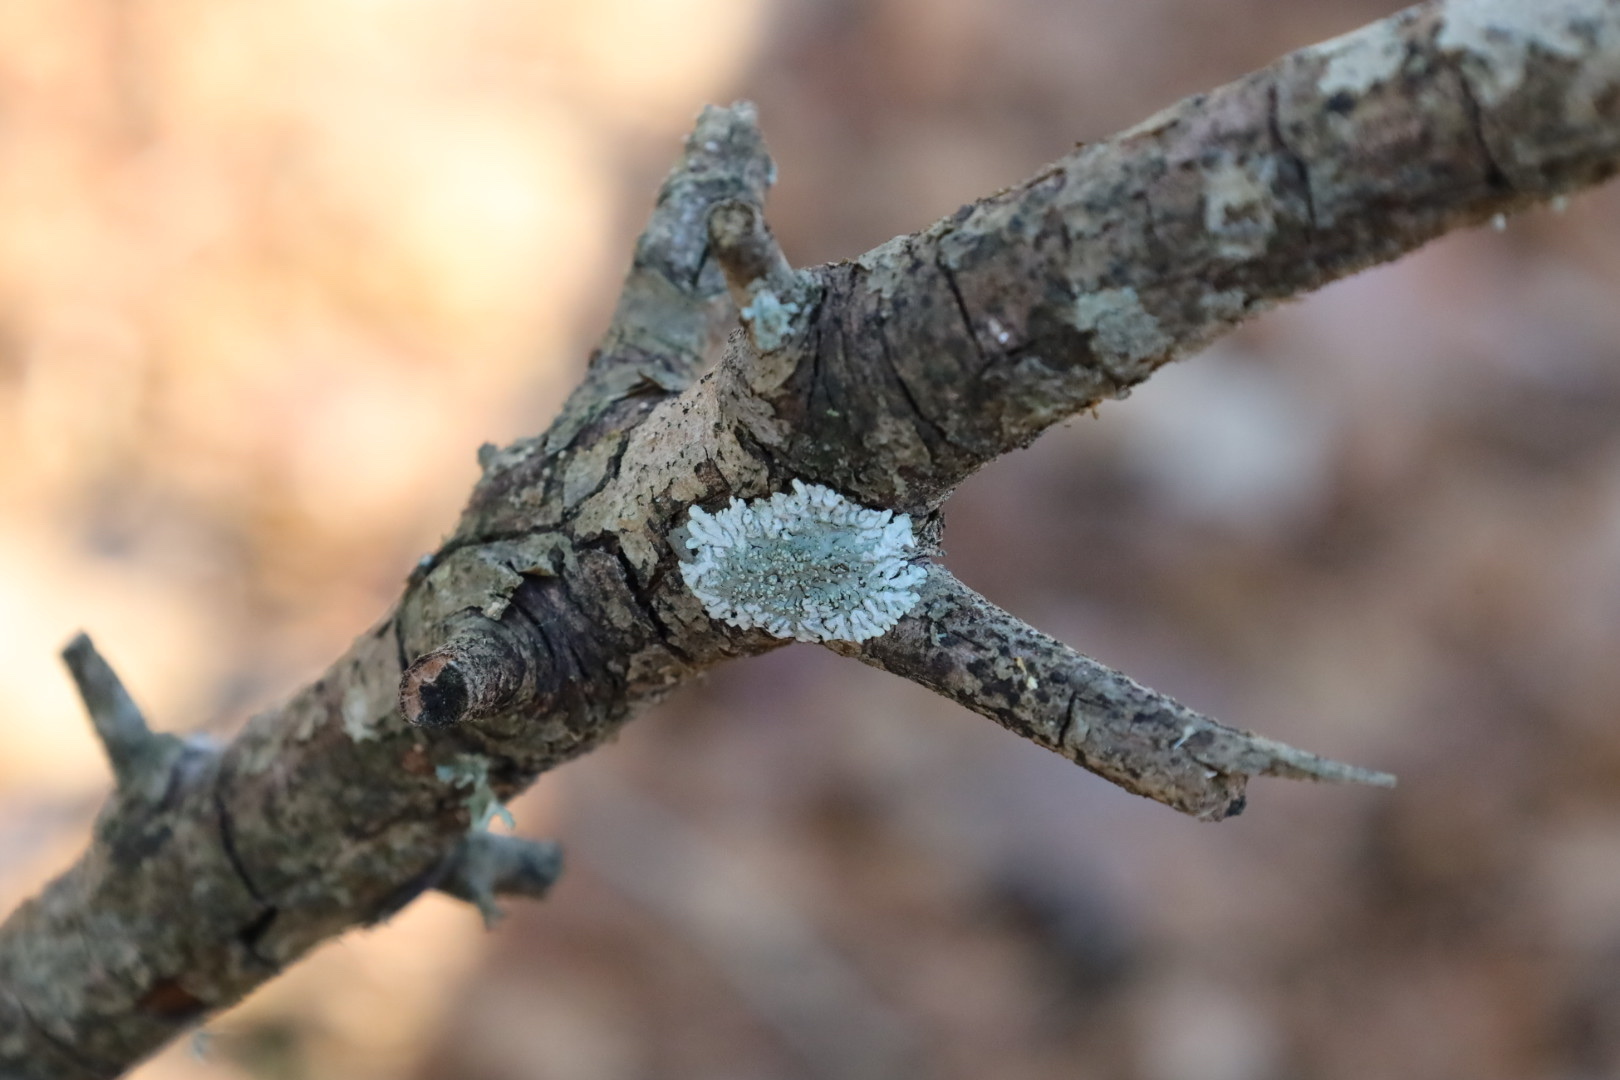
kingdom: Fungi
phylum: Ascomycota
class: Lecanoromycetes
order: Caliciales
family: Caliciaceae
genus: Pyxine
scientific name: Pyxine subcinerea
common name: Mustard lichen
